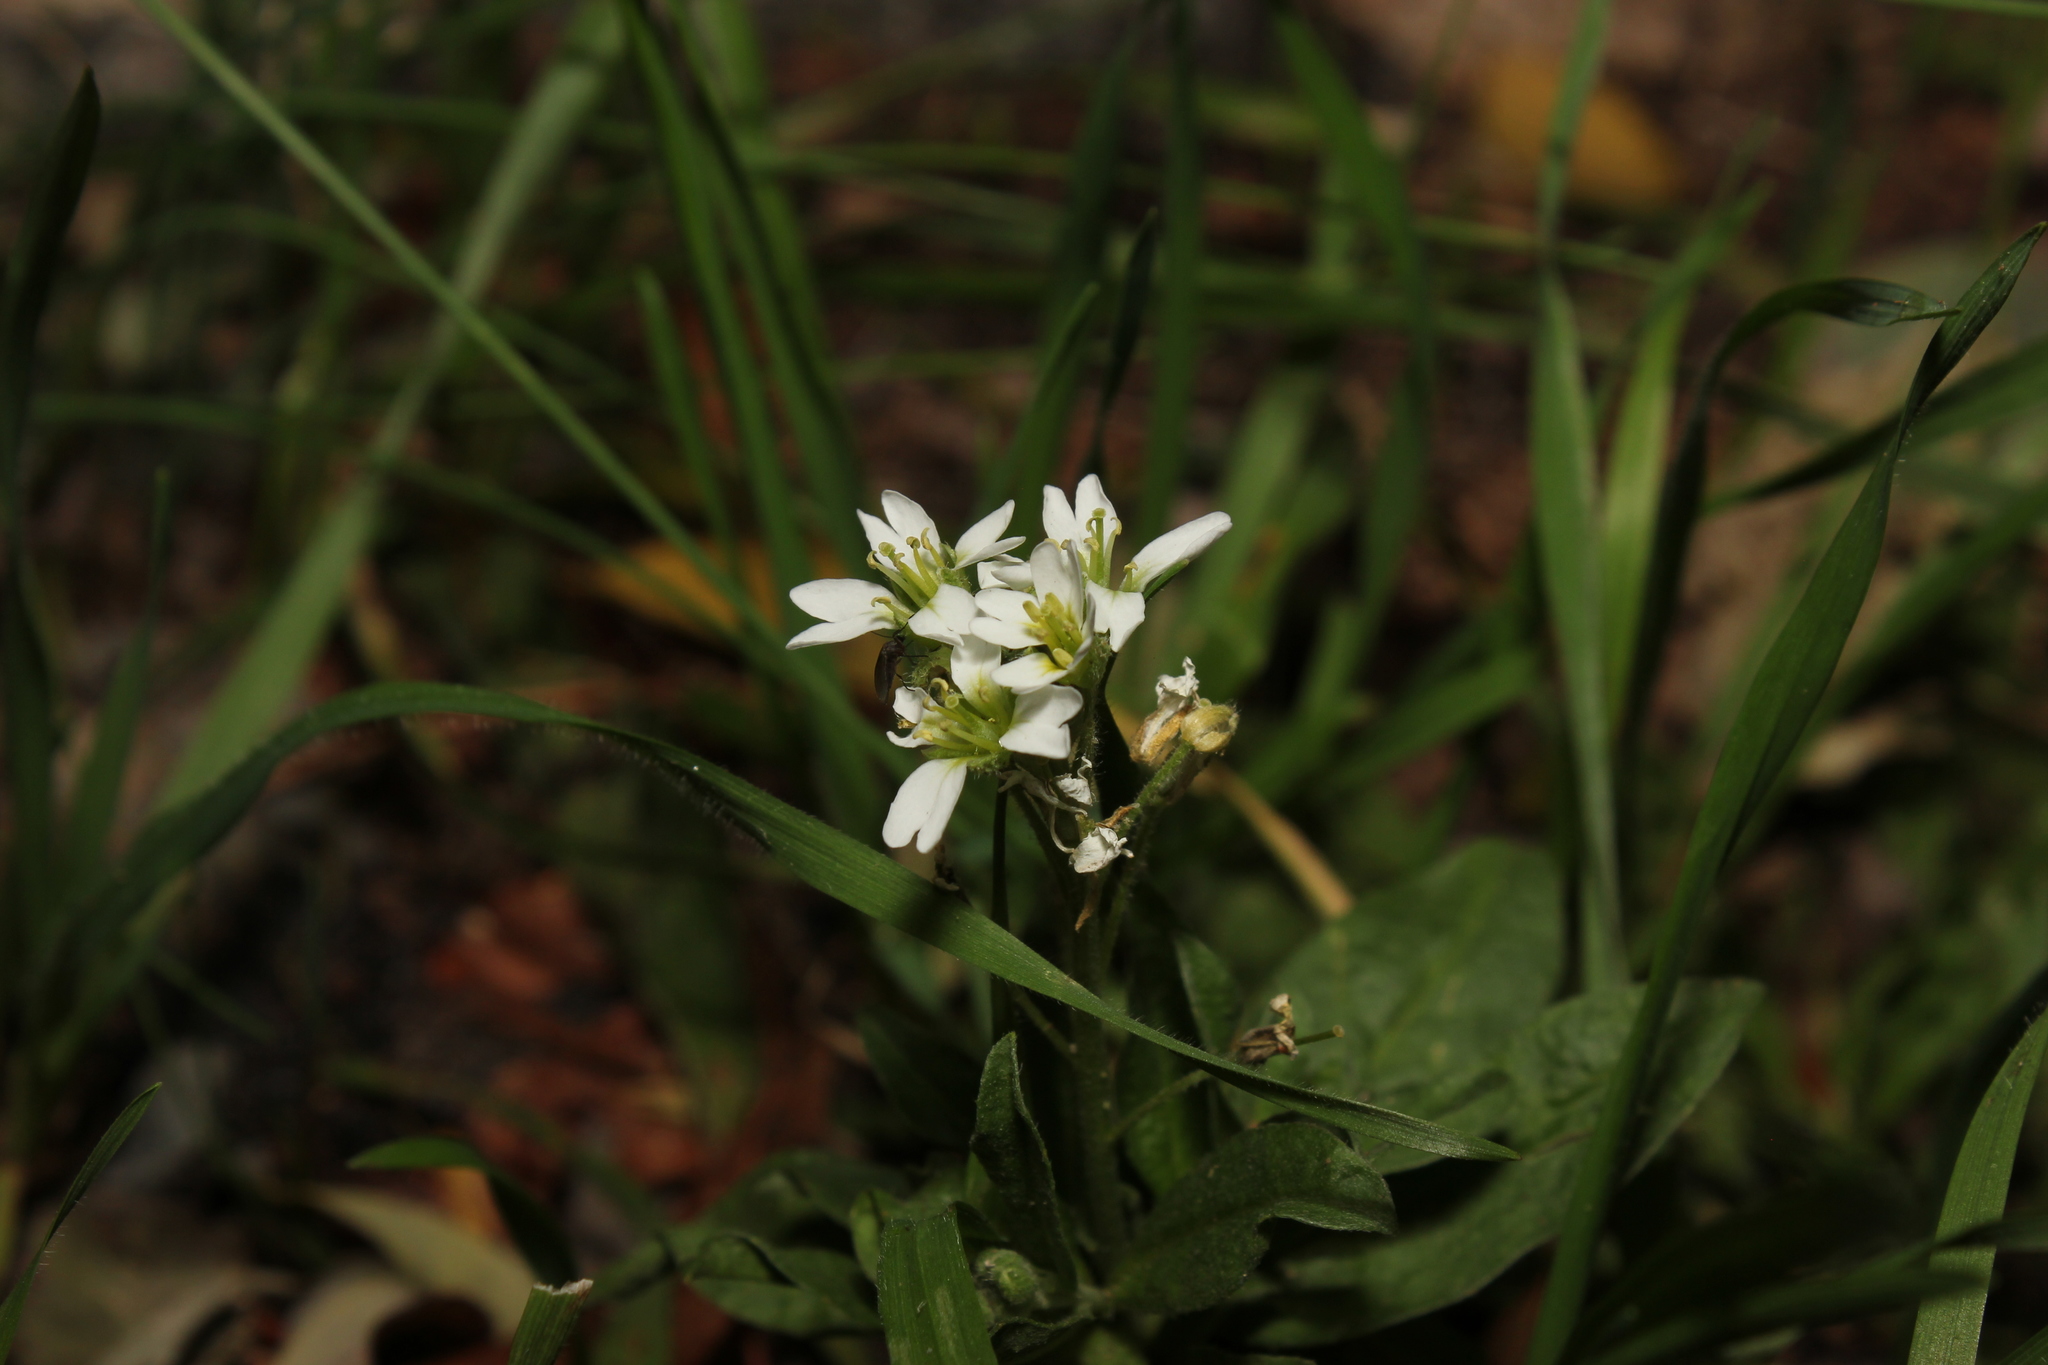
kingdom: Plantae
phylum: Tracheophyta
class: Magnoliopsida
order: Brassicales
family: Brassicaceae
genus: Berteroa
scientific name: Berteroa incana
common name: Hoary alison
